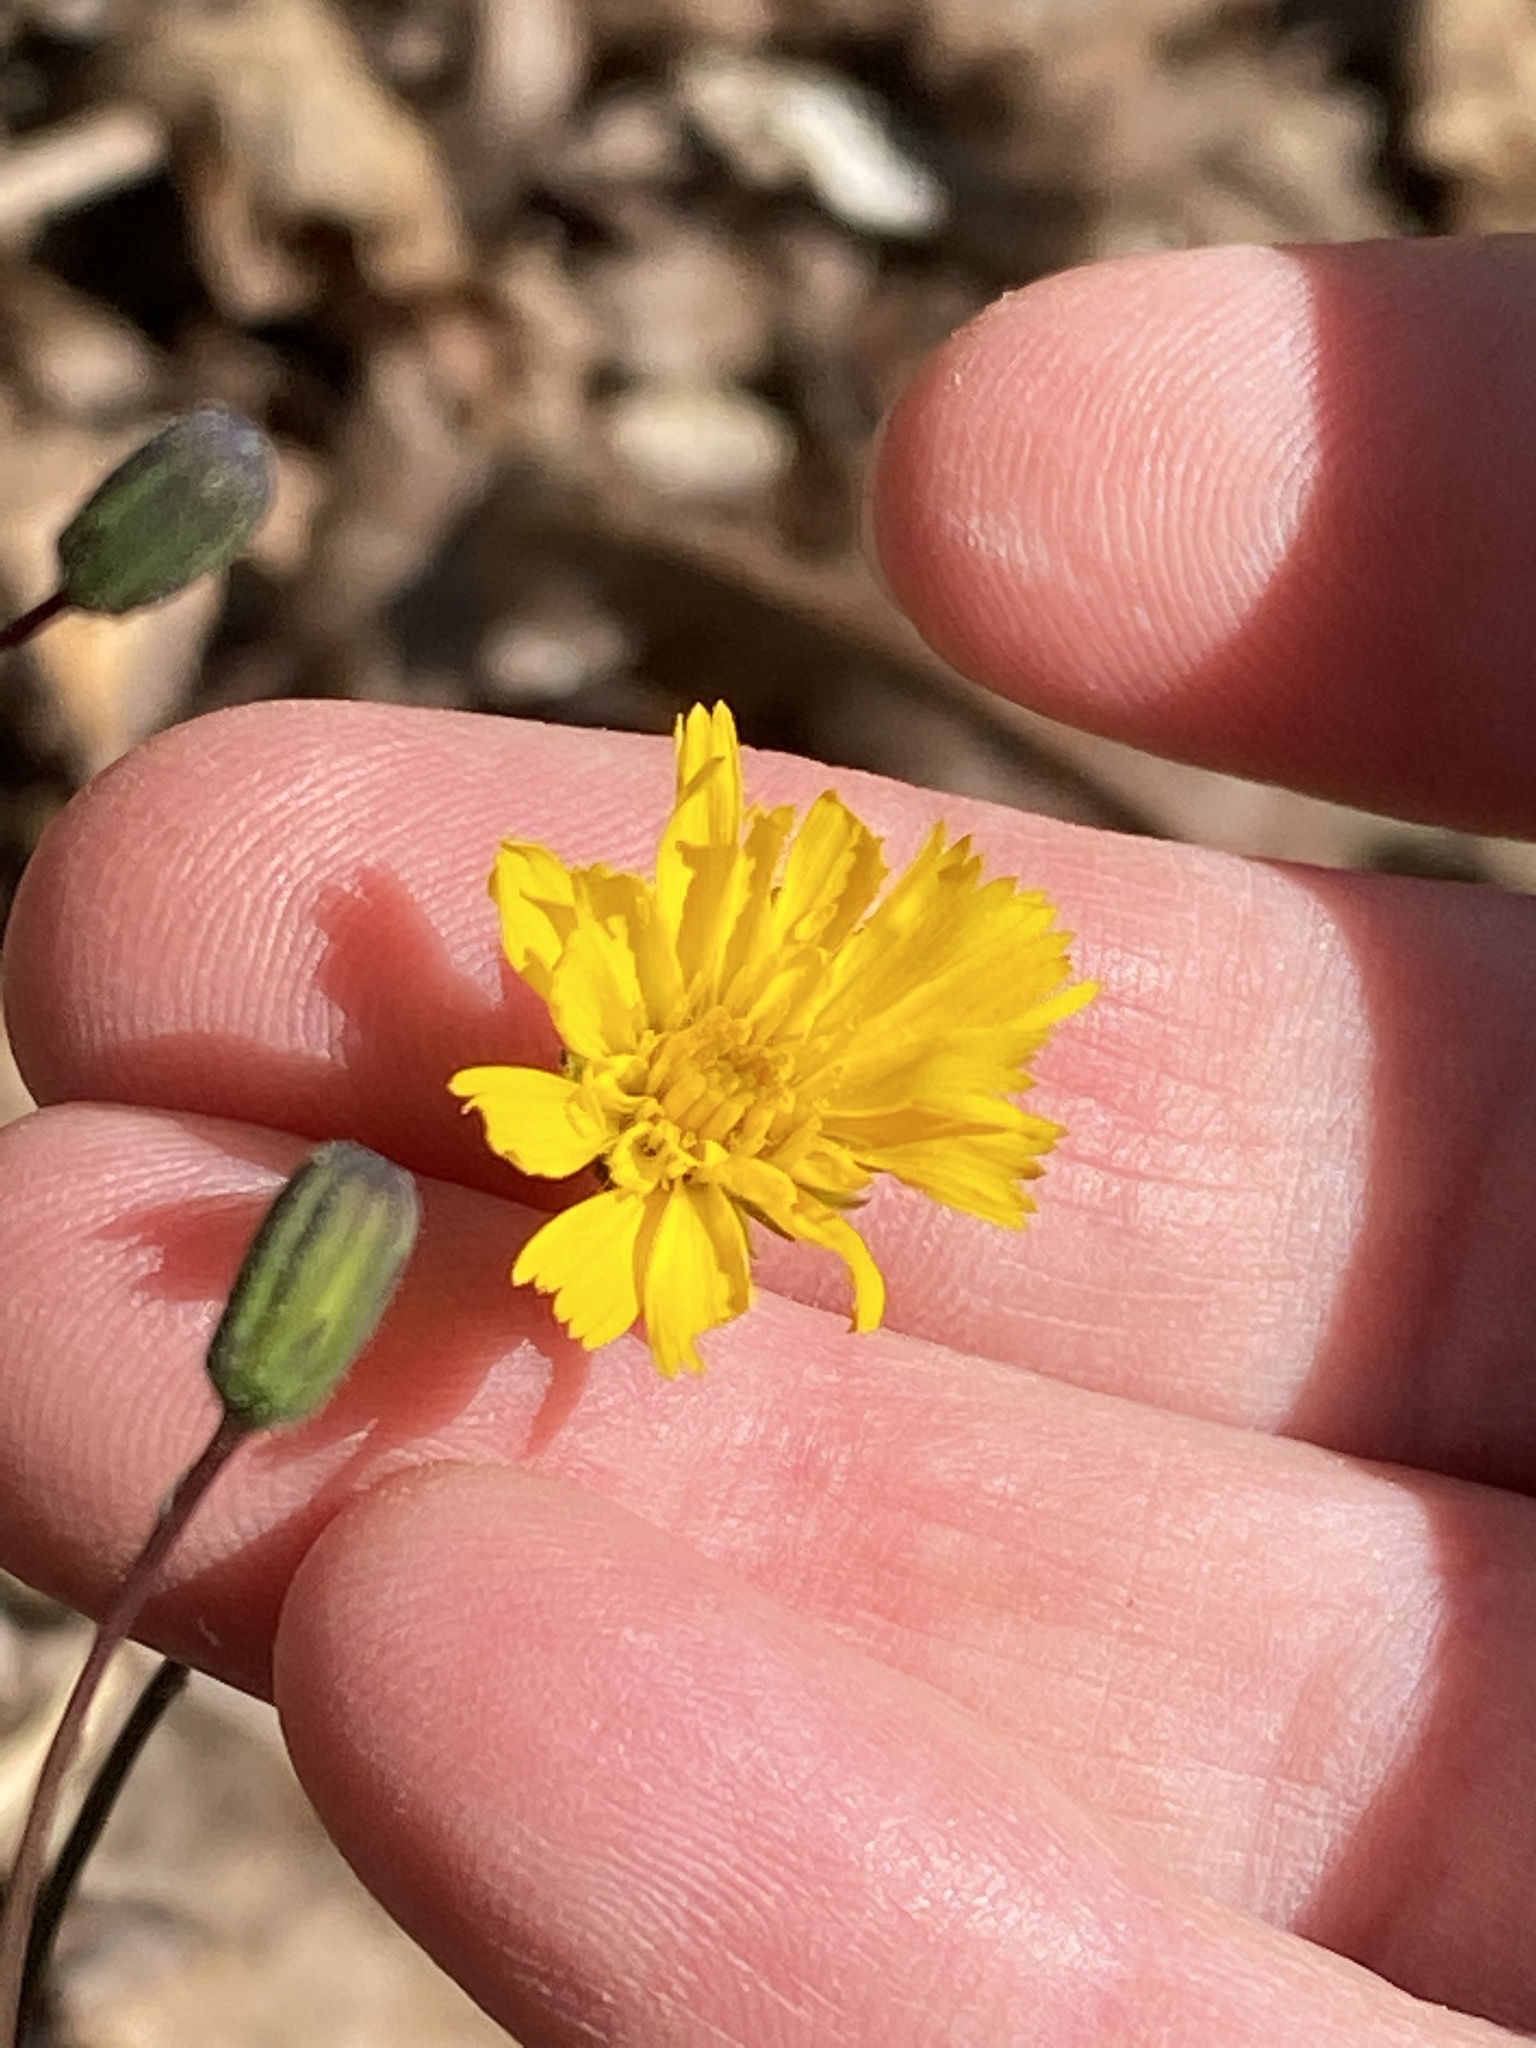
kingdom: Plantae
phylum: Tracheophyta
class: Magnoliopsida
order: Asterales
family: Asteraceae
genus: Hieracium
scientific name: Hieracium venosum
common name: Rattlesnake hawkweed
